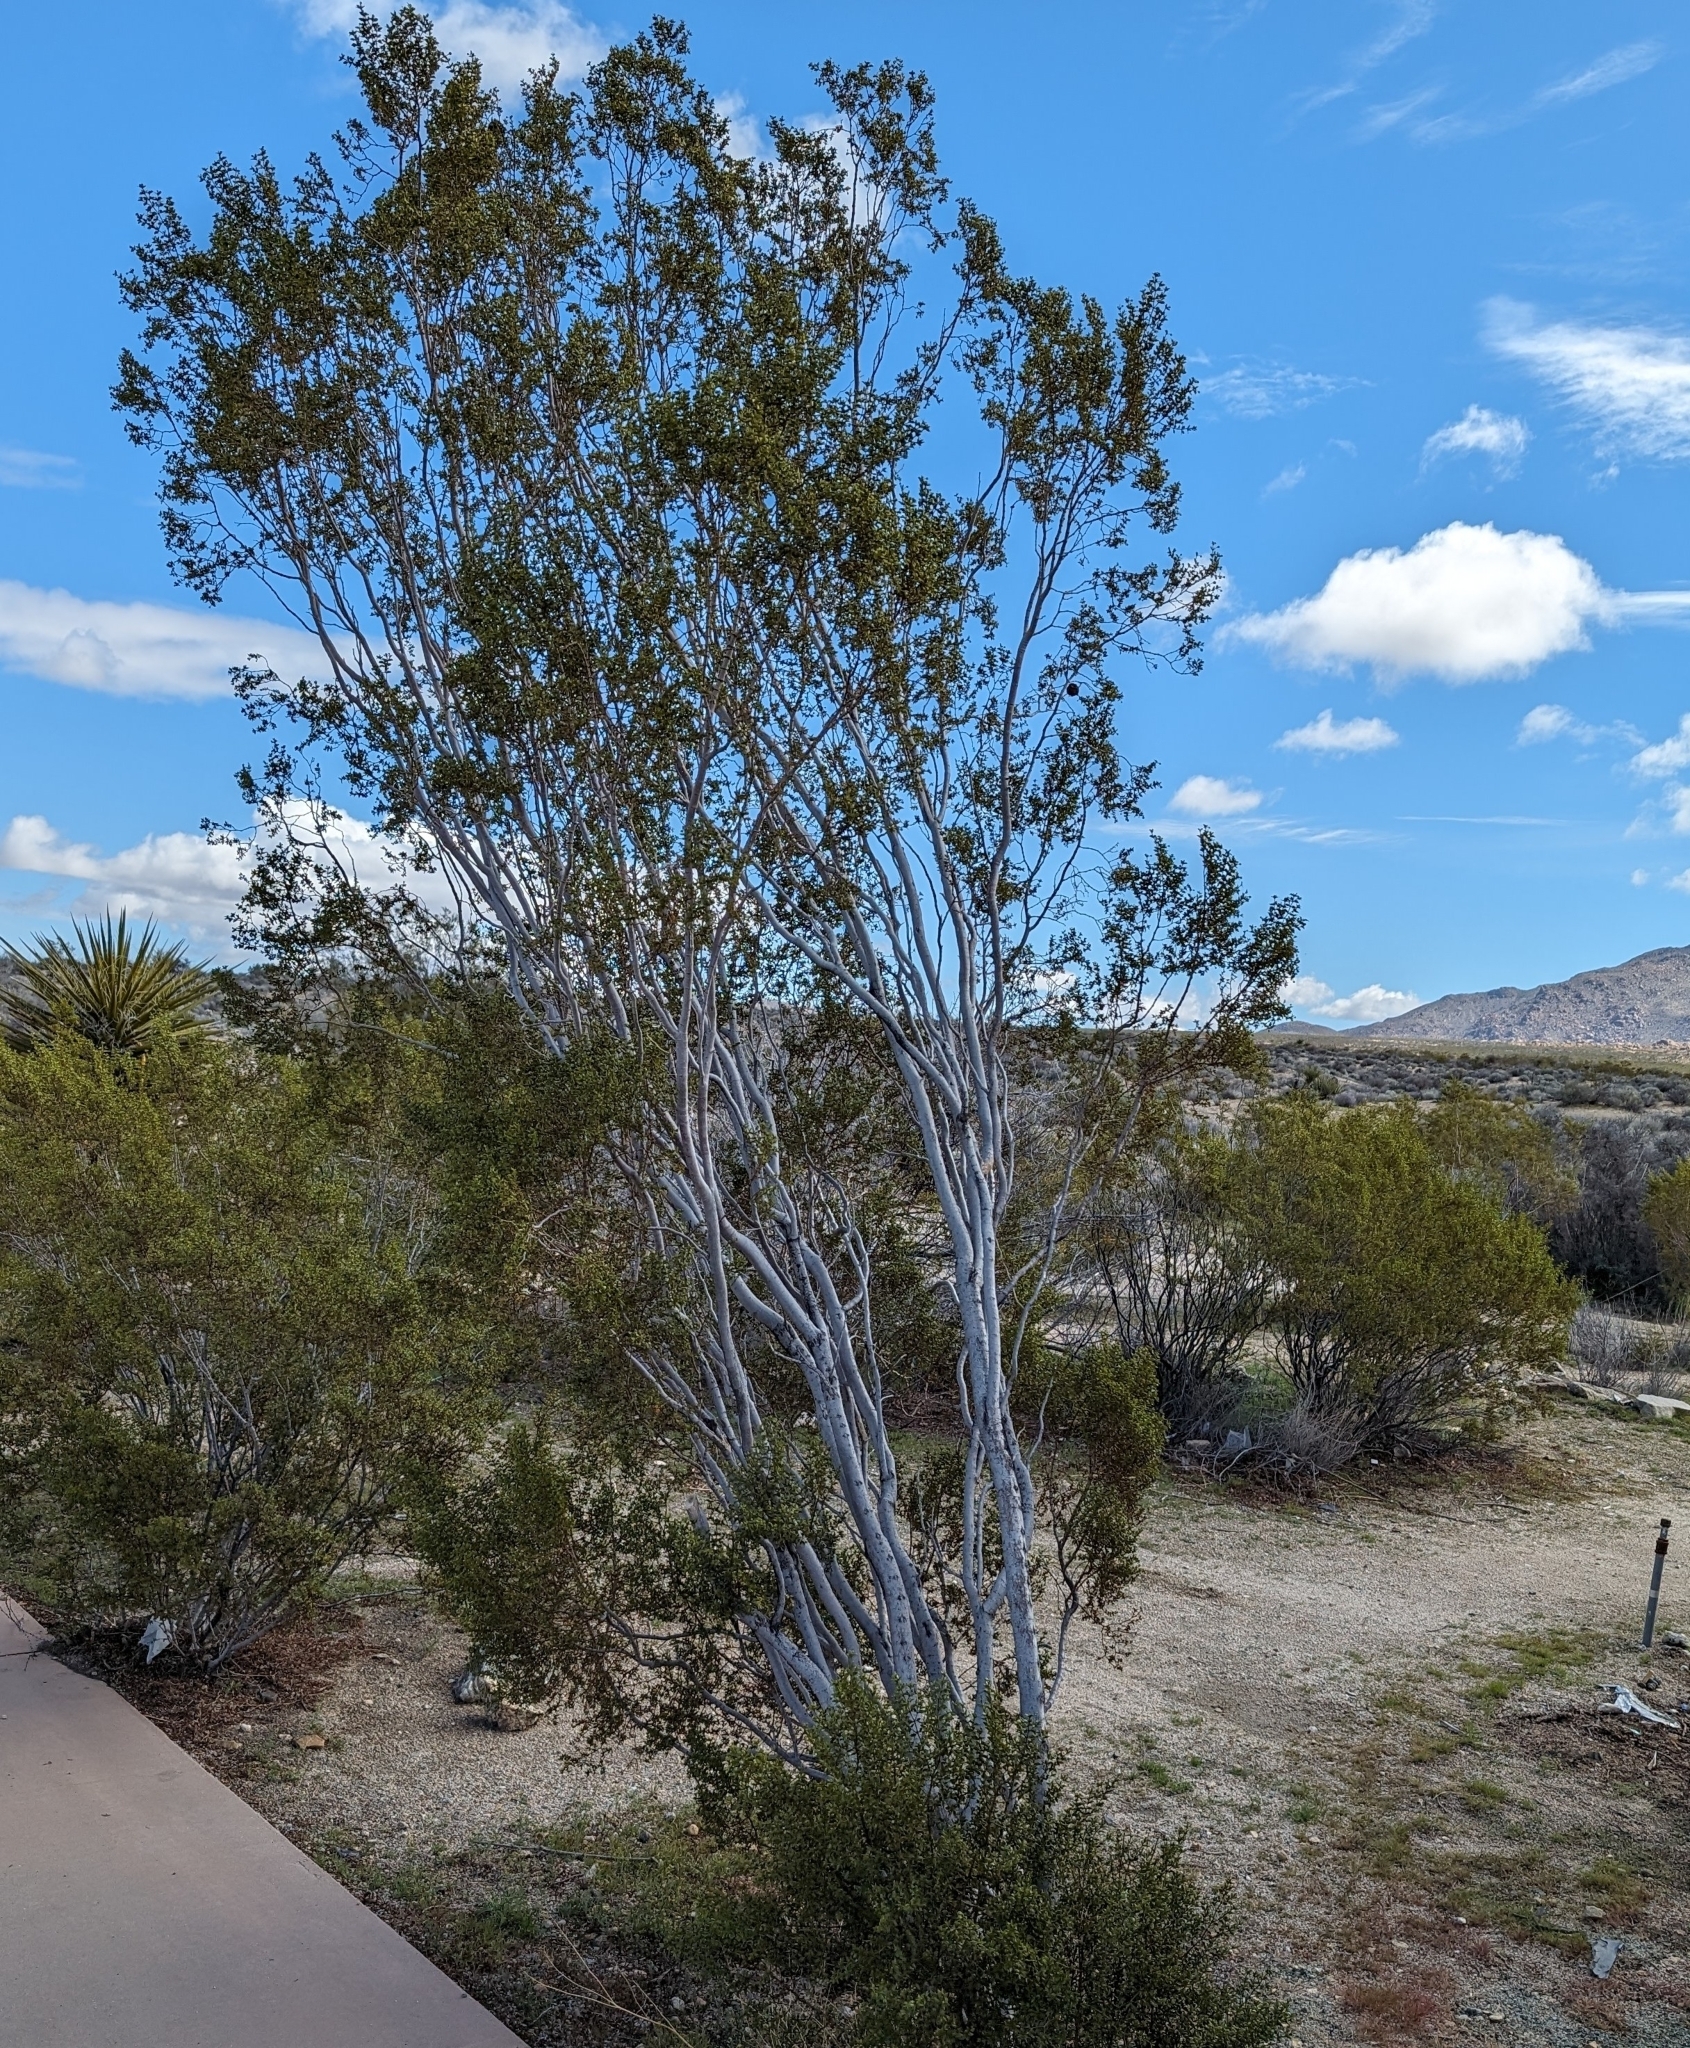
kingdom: Plantae
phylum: Tracheophyta
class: Magnoliopsida
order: Zygophyllales
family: Zygophyllaceae
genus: Larrea
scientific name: Larrea tridentata
